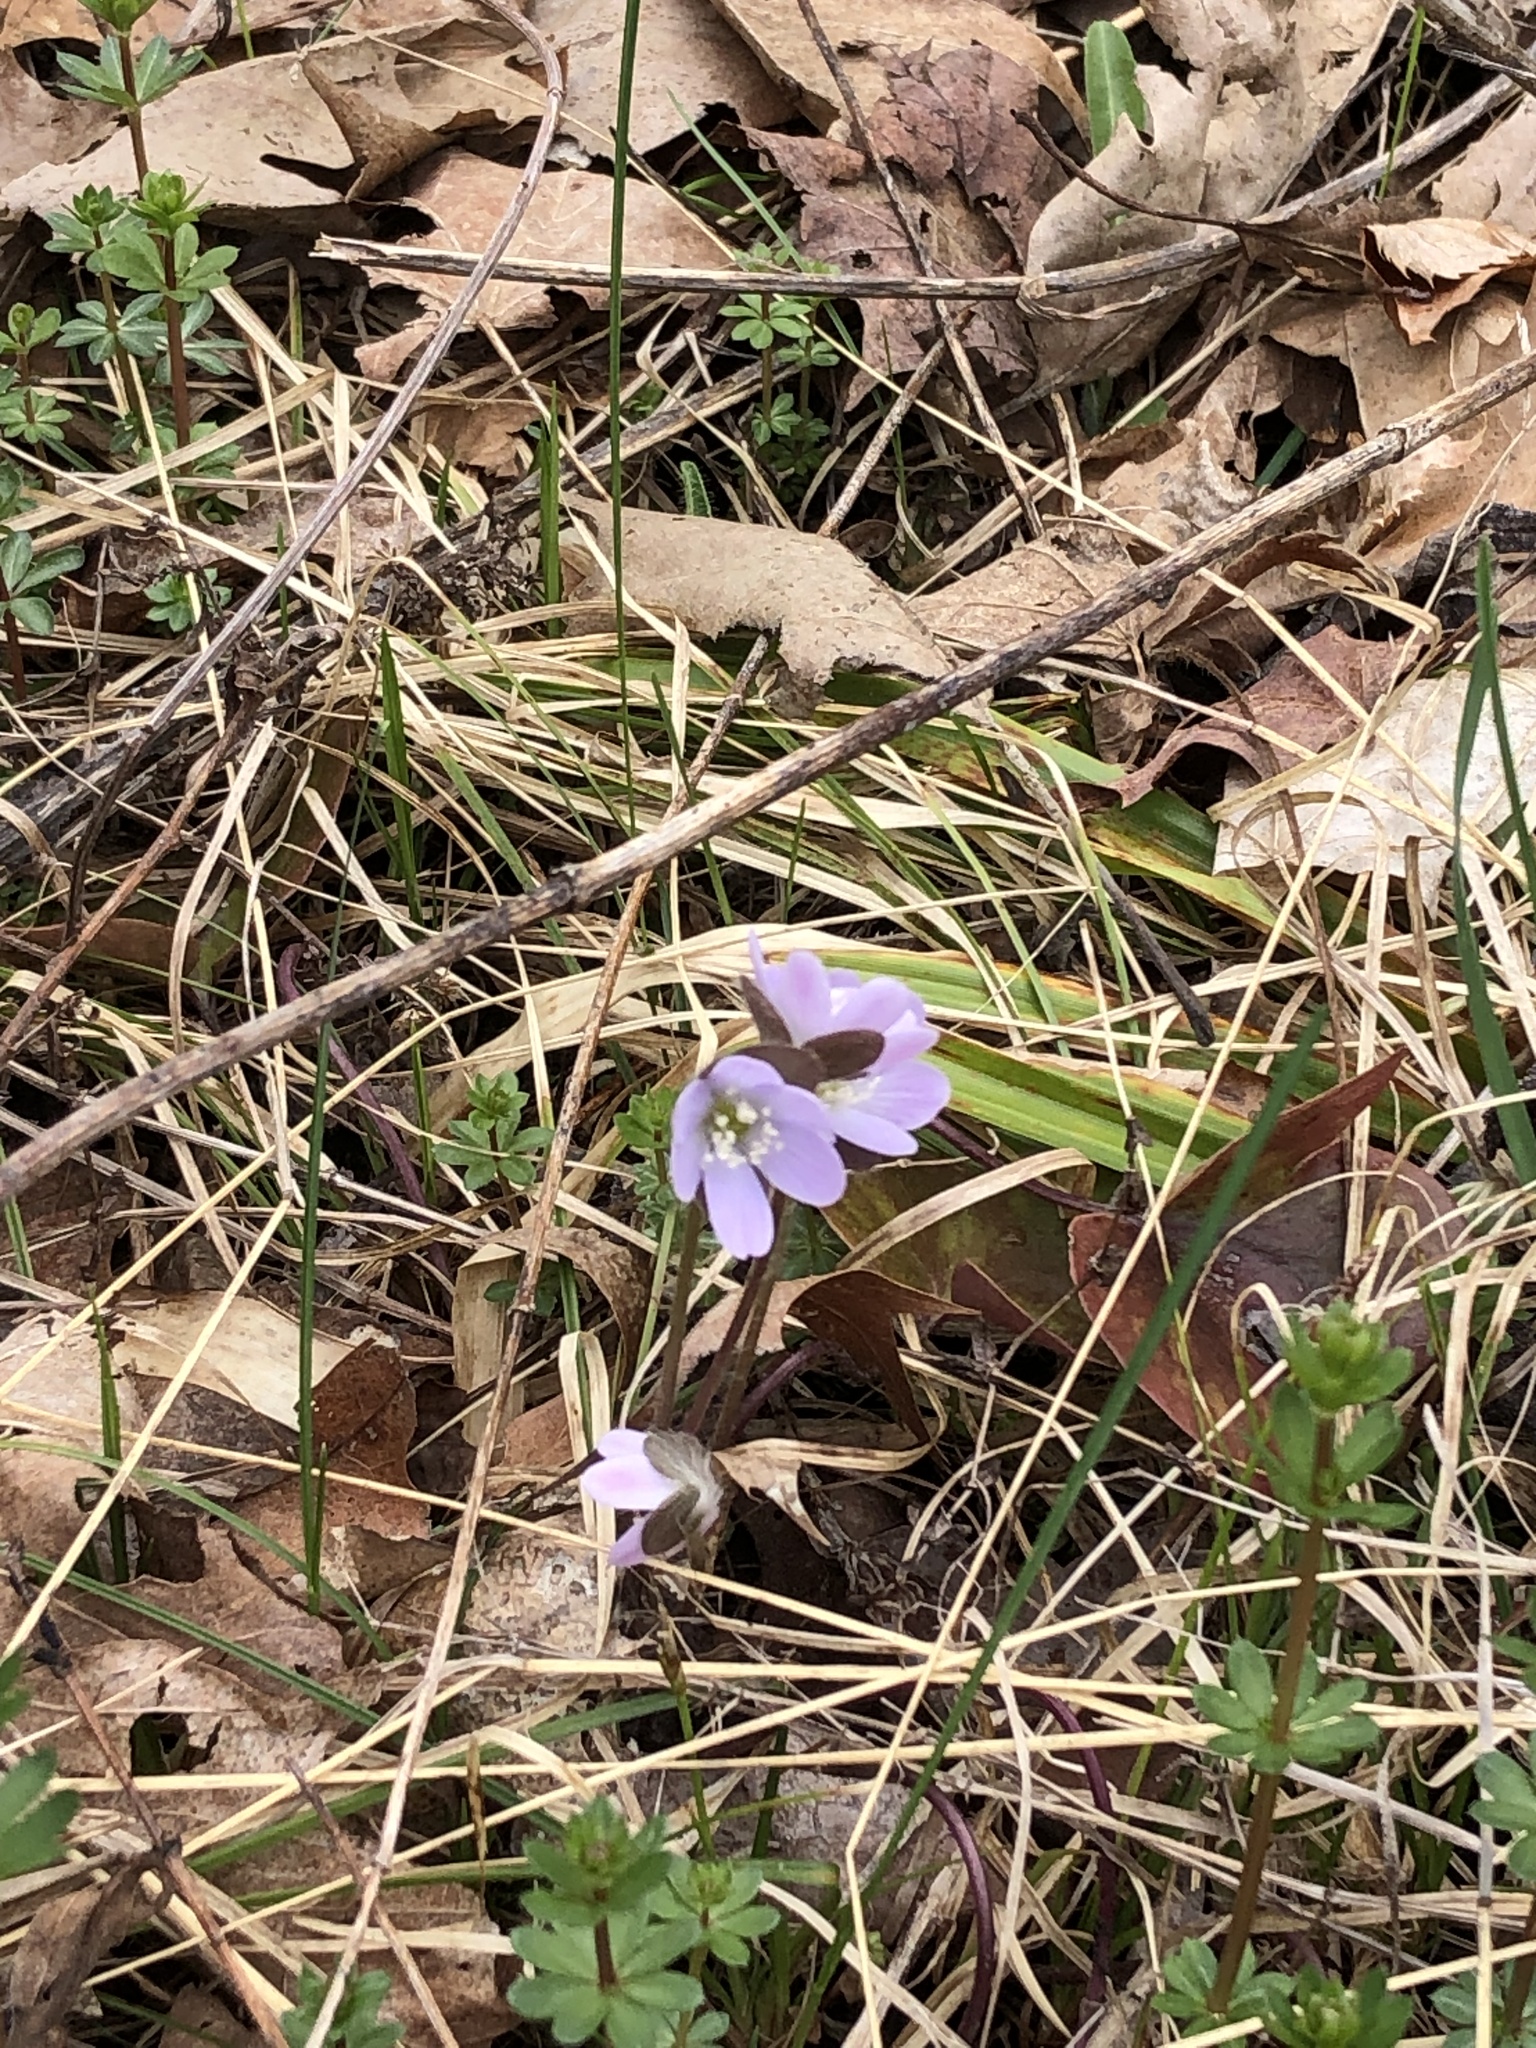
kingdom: Plantae
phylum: Tracheophyta
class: Magnoliopsida
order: Ranunculales
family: Ranunculaceae
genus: Hepatica
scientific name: Hepatica americana
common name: American hepatica
